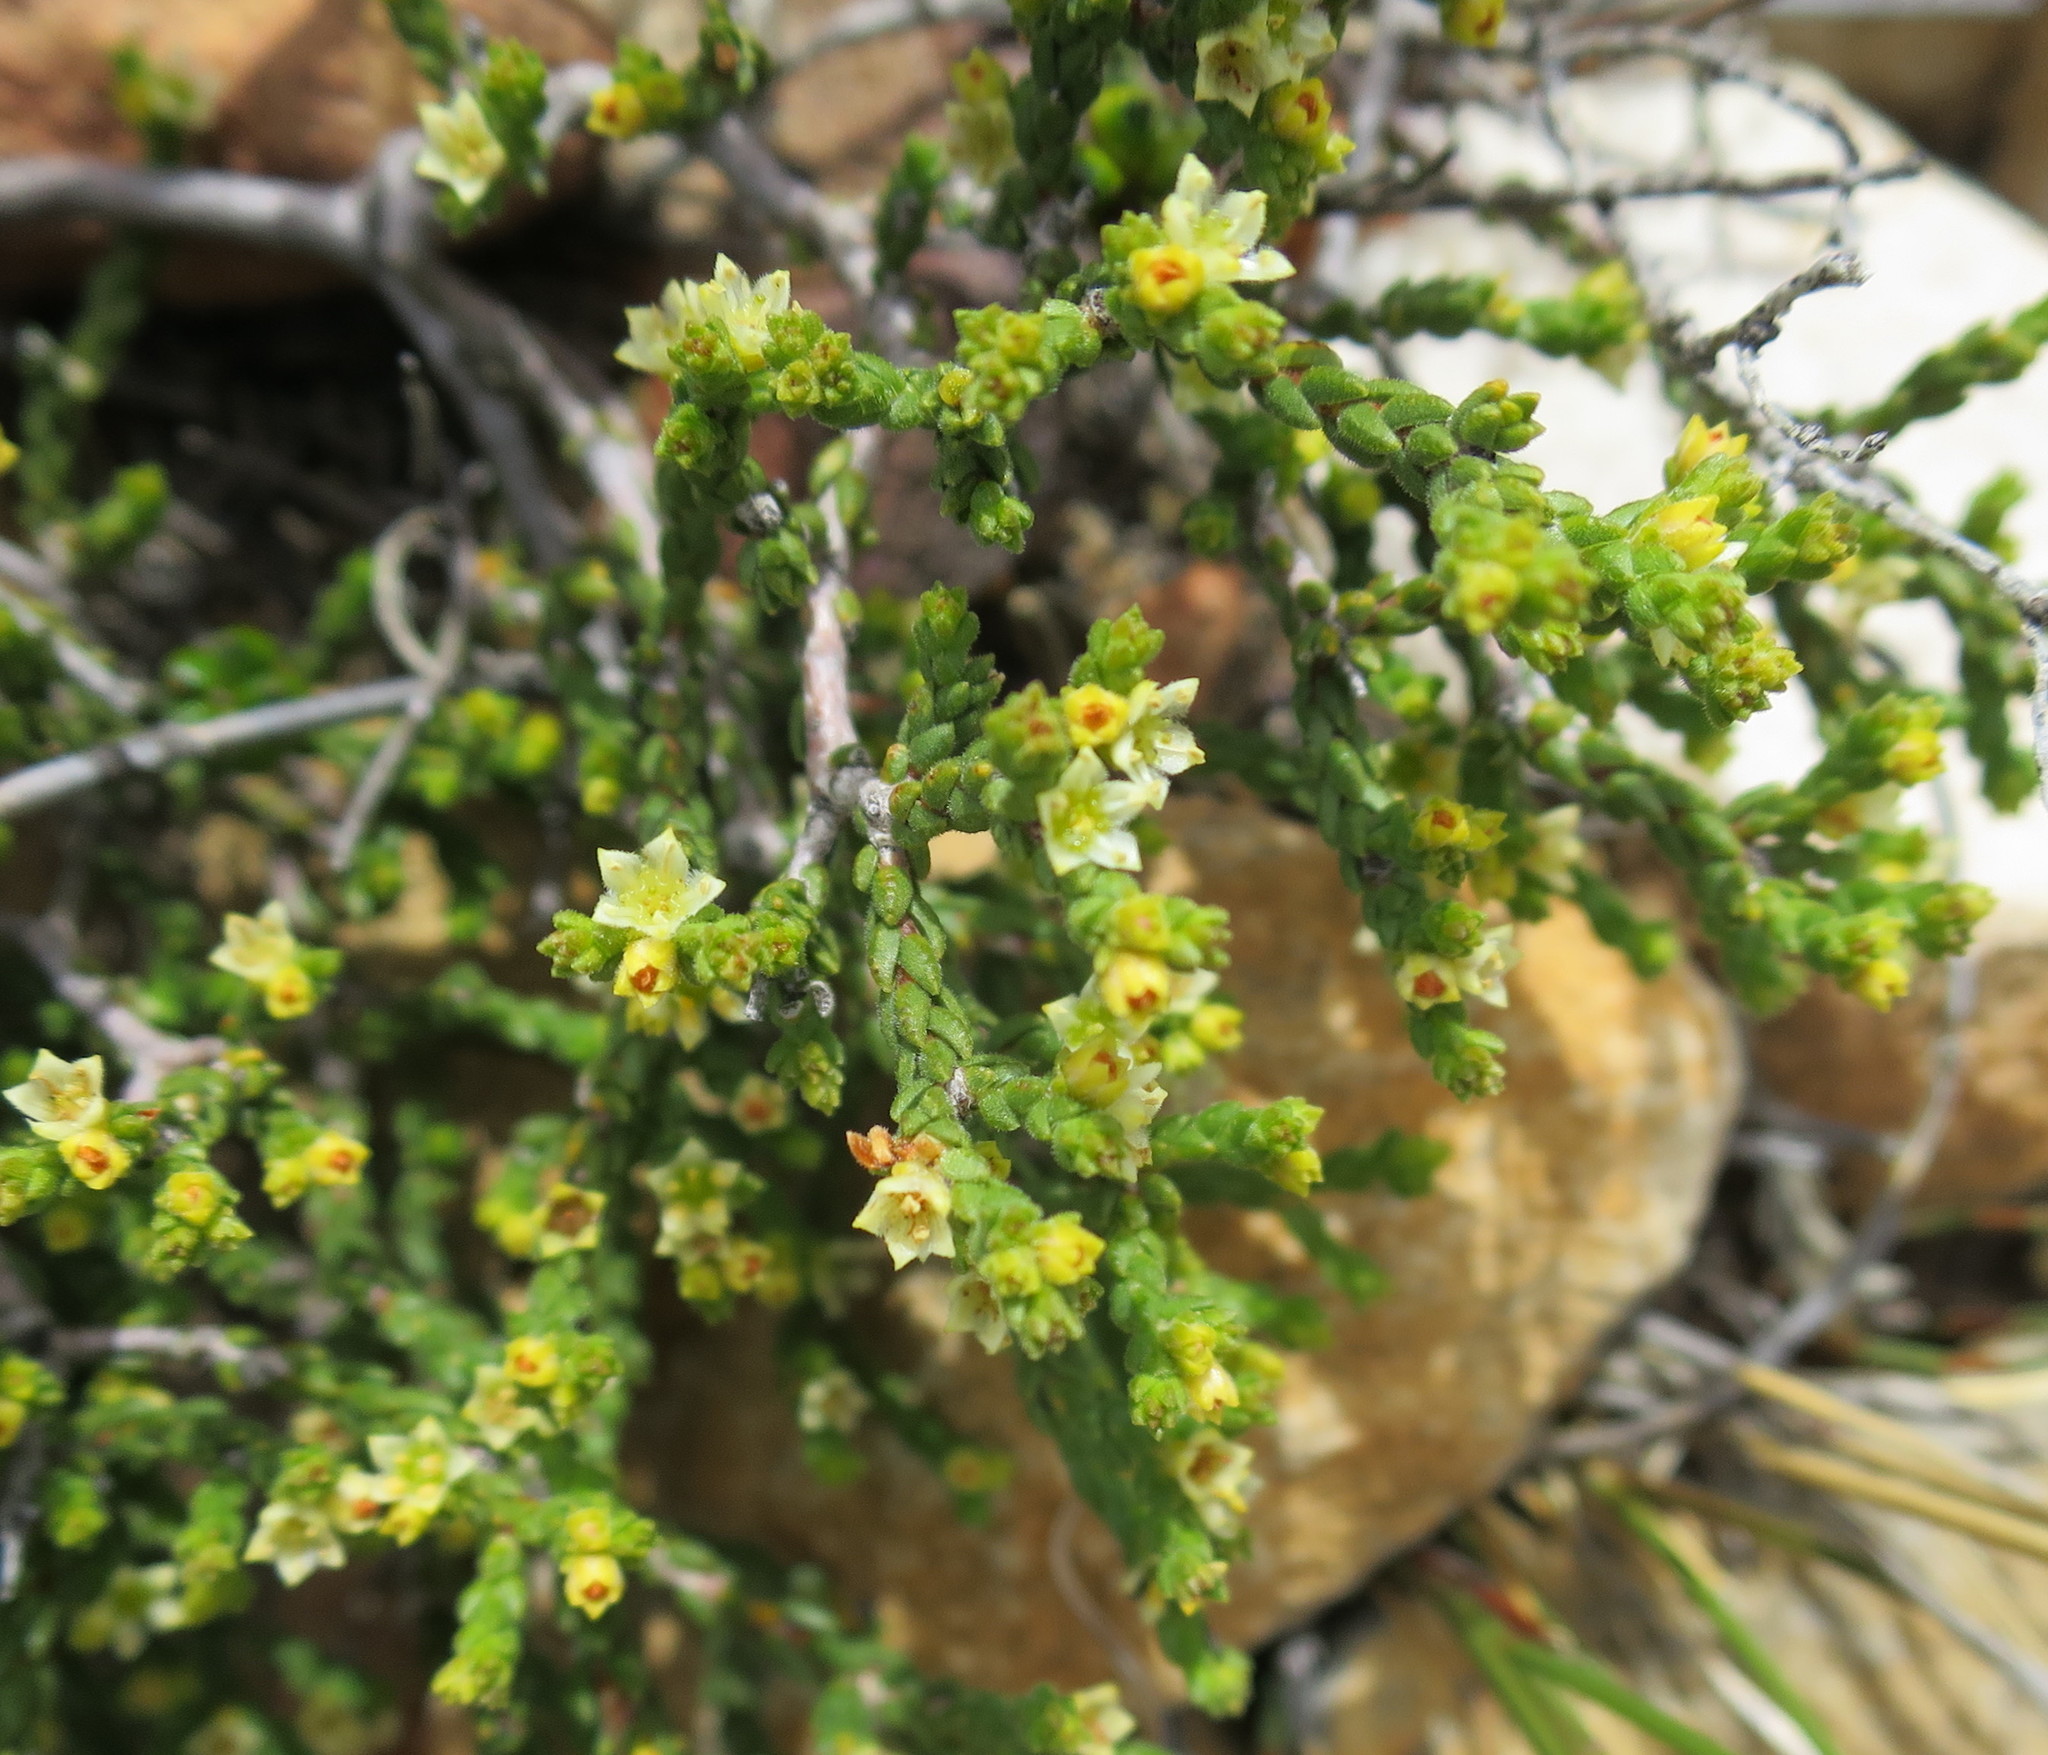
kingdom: Plantae
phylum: Tracheophyta
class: Magnoliopsida
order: Sapindales
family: Rutaceae
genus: Diosma
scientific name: Diosma apetala
